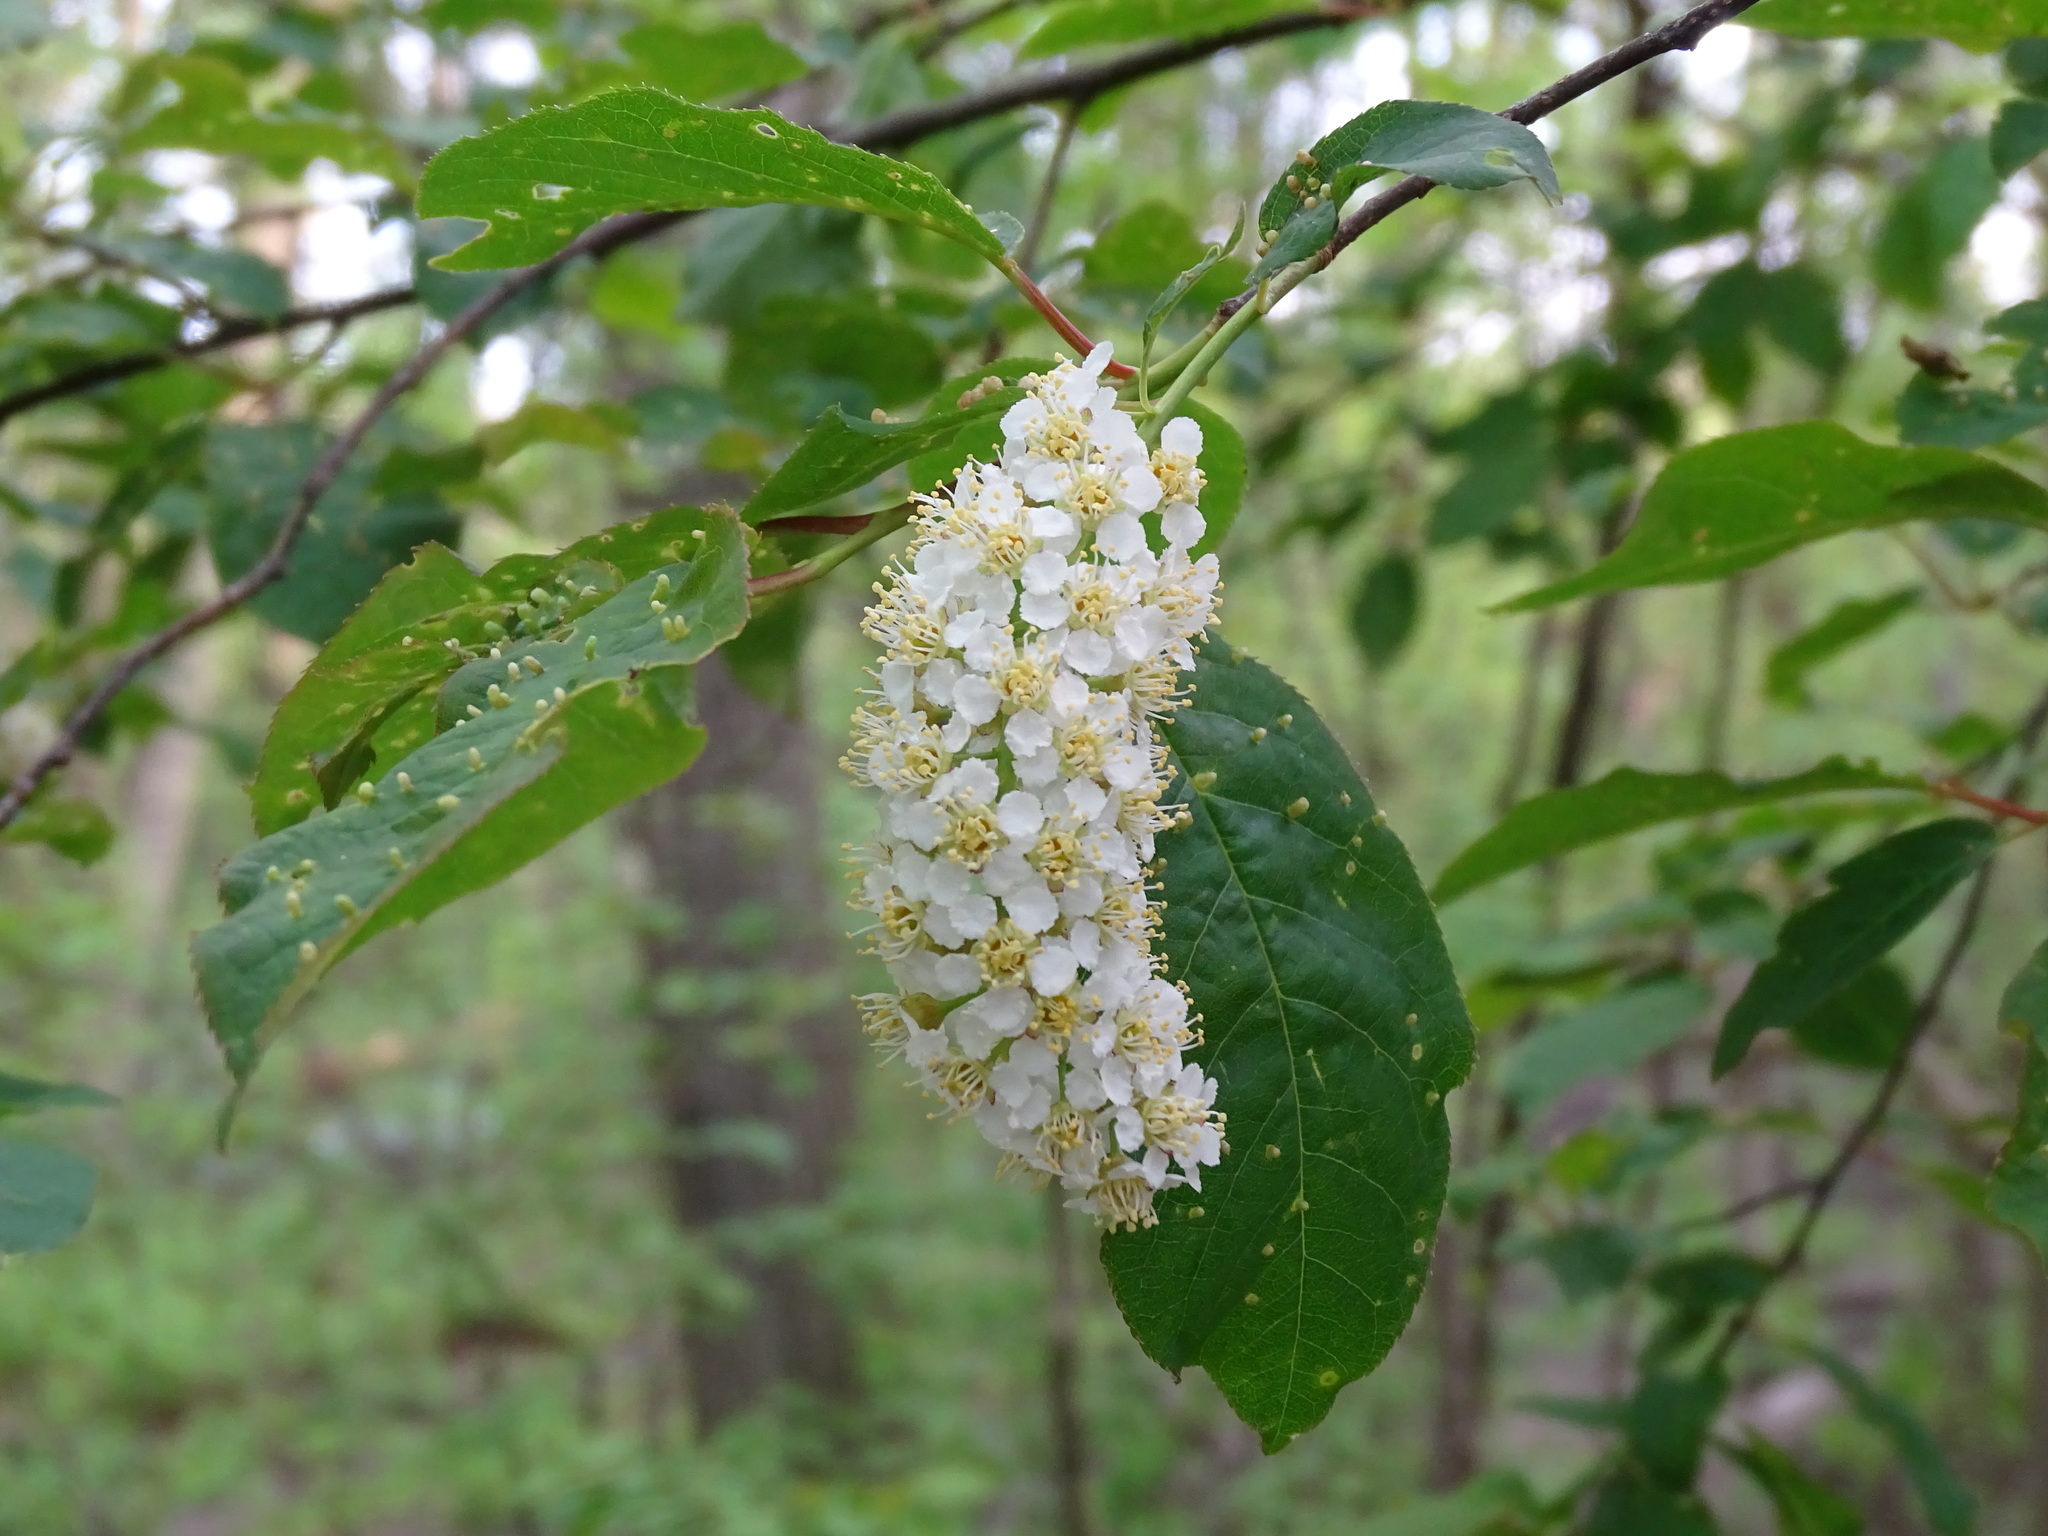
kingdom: Plantae
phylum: Tracheophyta
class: Magnoliopsida
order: Rosales
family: Rosaceae
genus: Prunus
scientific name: Prunus virginiana
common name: Chokecherry
